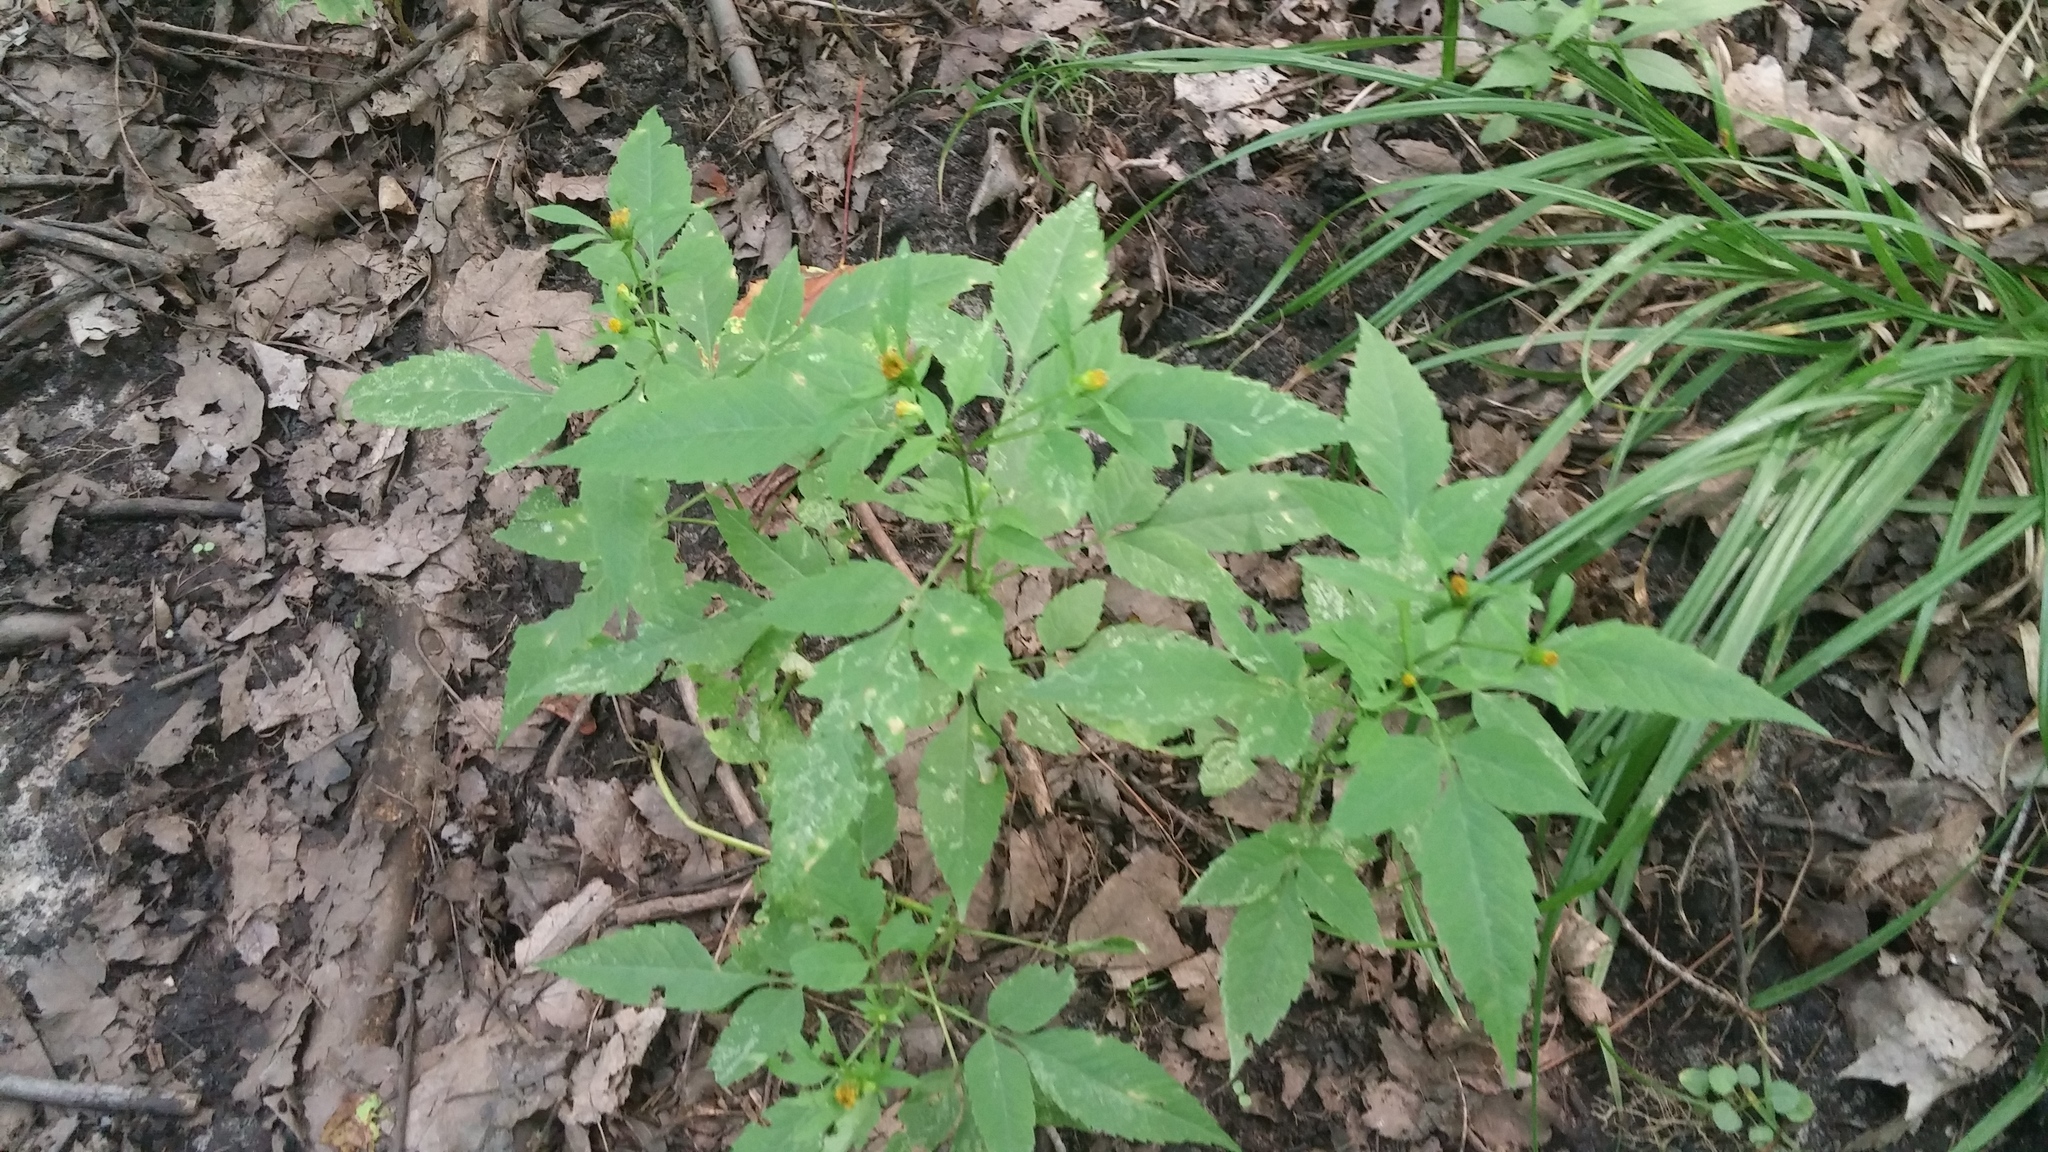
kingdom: Plantae
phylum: Tracheophyta
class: Magnoliopsida
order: Asterales
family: Asteraceae
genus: Bidens
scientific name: Bidens frondosa
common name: Beggarticks
